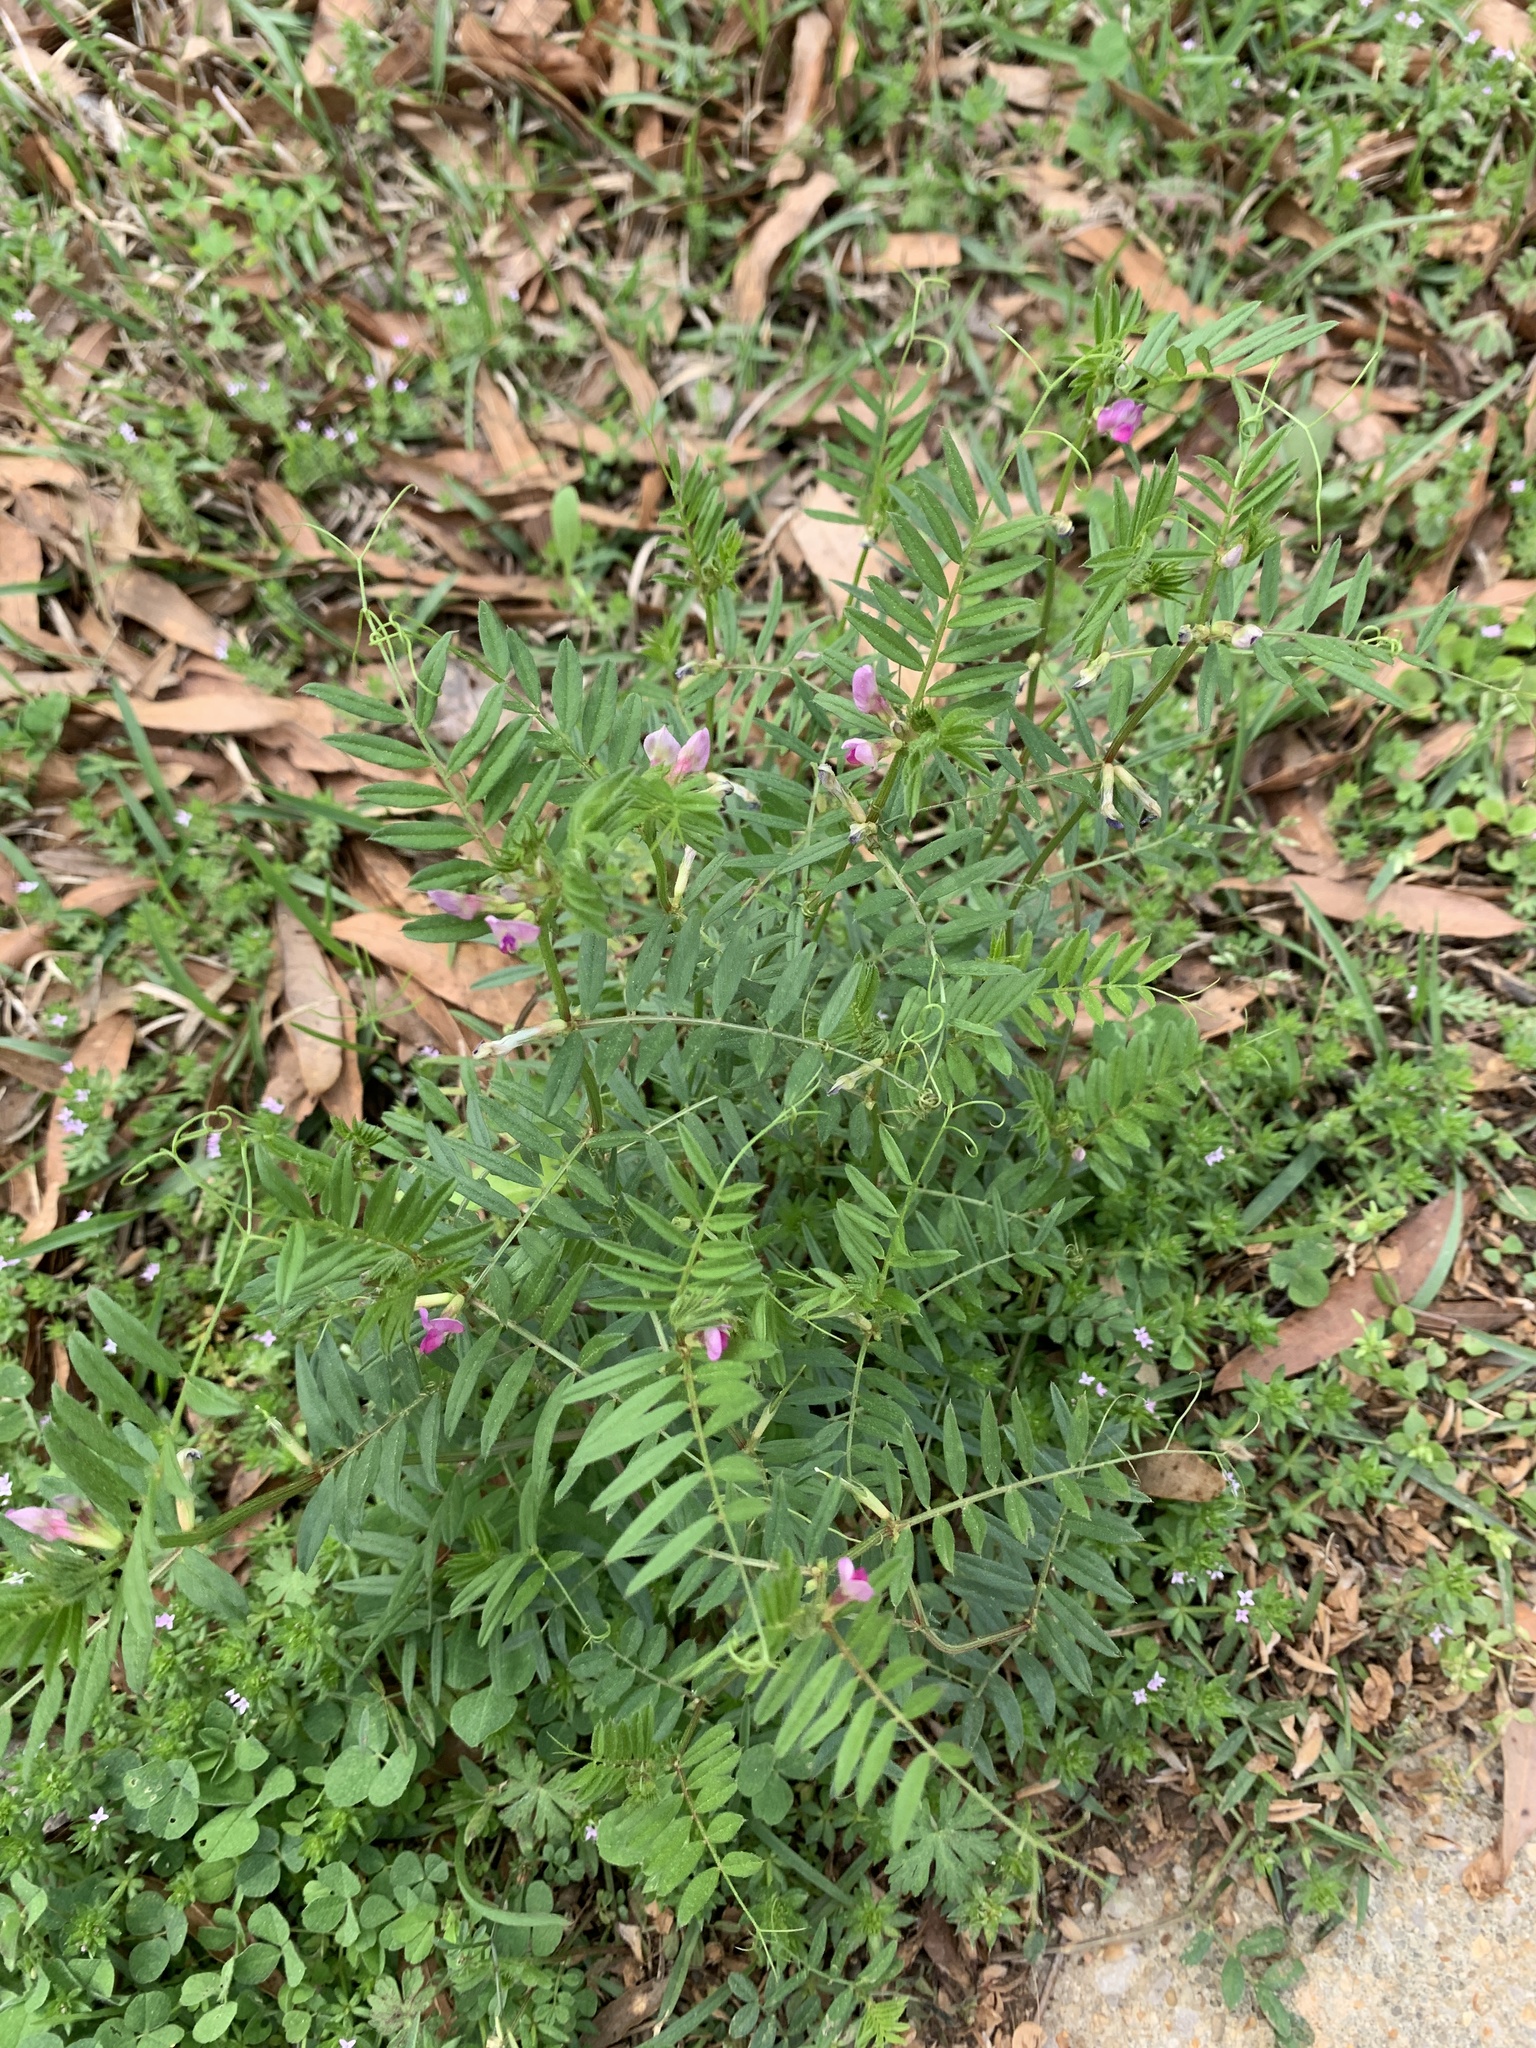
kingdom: Plantae
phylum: Tracheophyta
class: Magnoliopsida
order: Fabales
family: Fabaceae
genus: Vicia
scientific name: Vicia sativa
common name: Garden vetch
